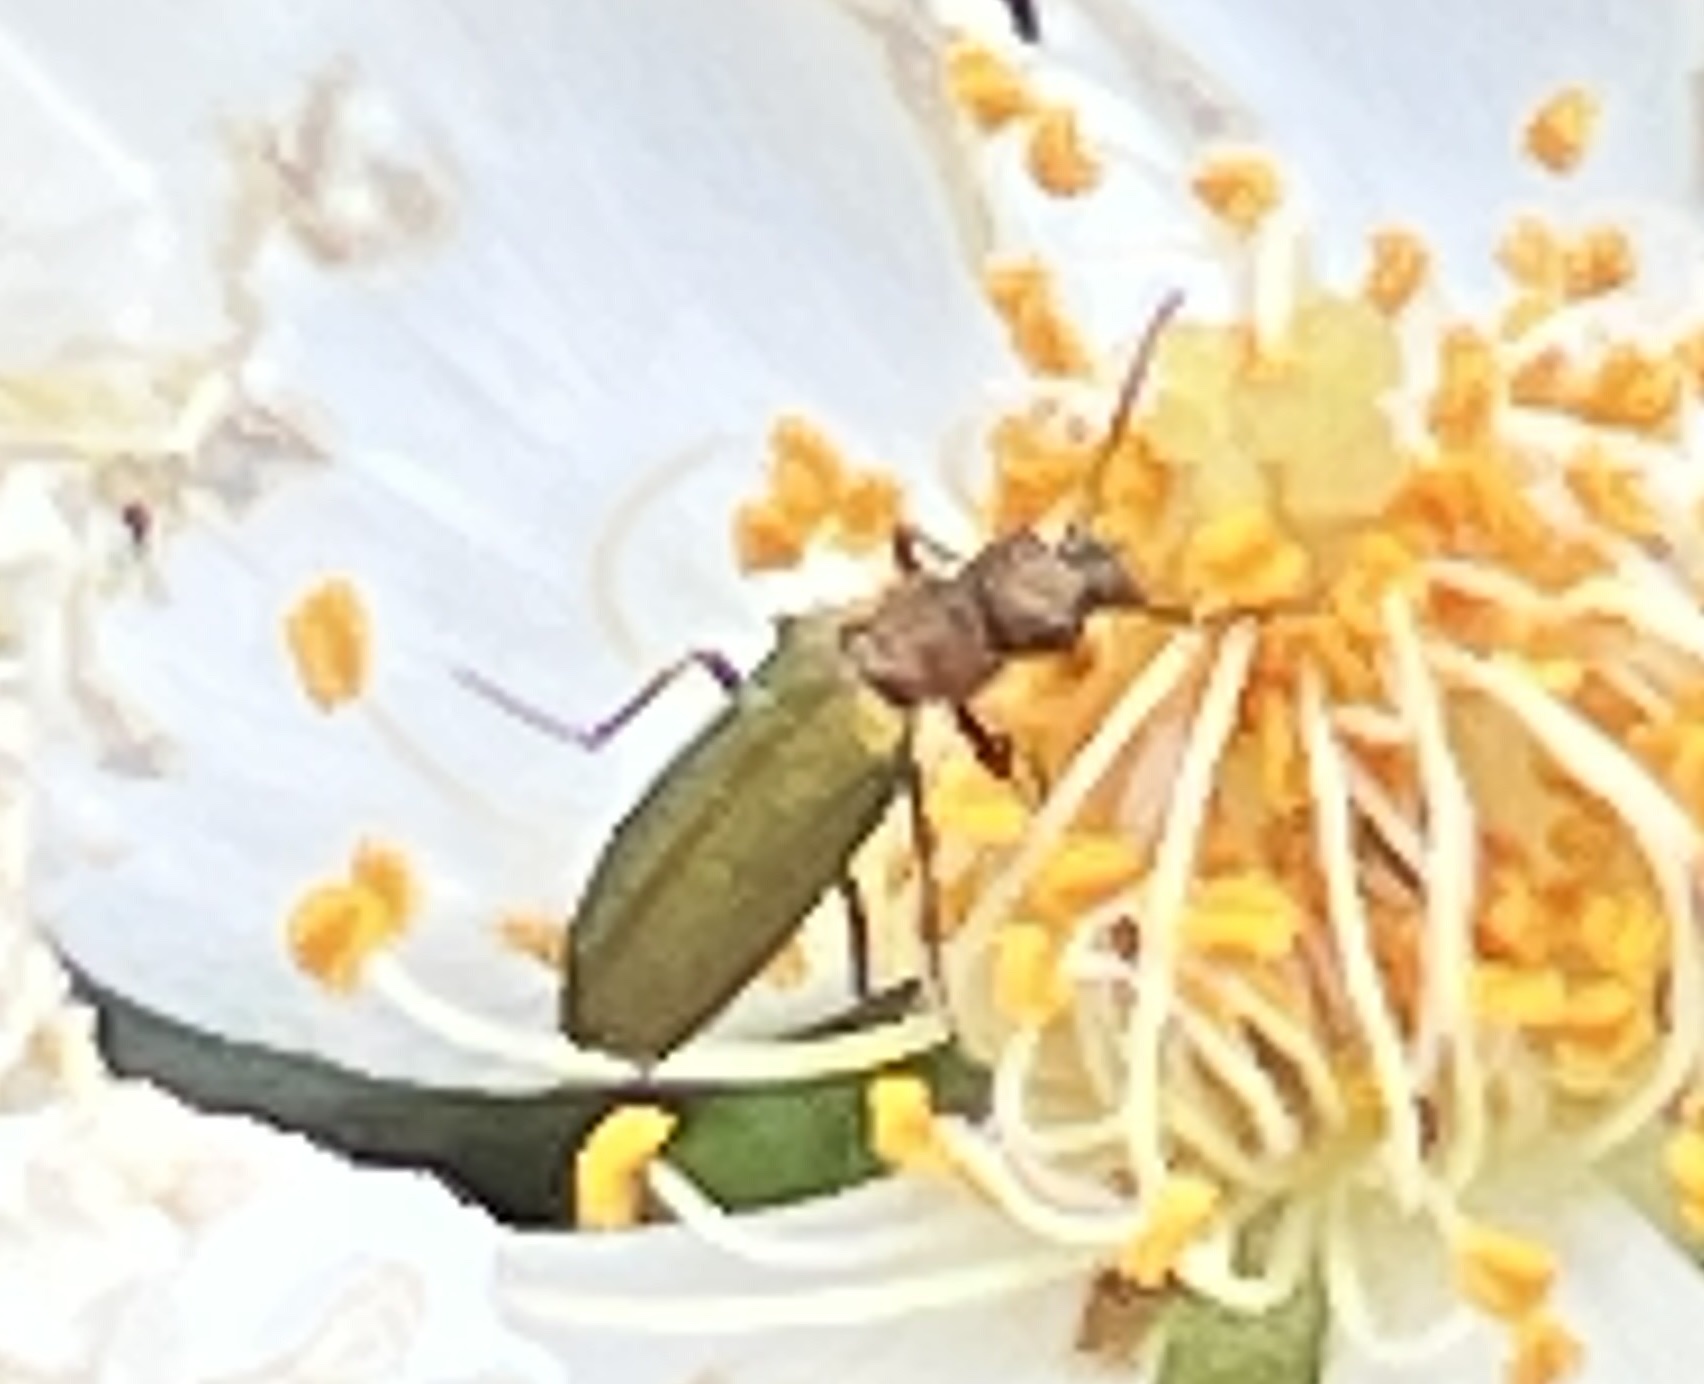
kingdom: Animalia
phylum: Arthropoda
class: Insecta
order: Coleoptera
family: Stenotrachelidae
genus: Stenotrachelus
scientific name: Stenotrachelus aeneus
